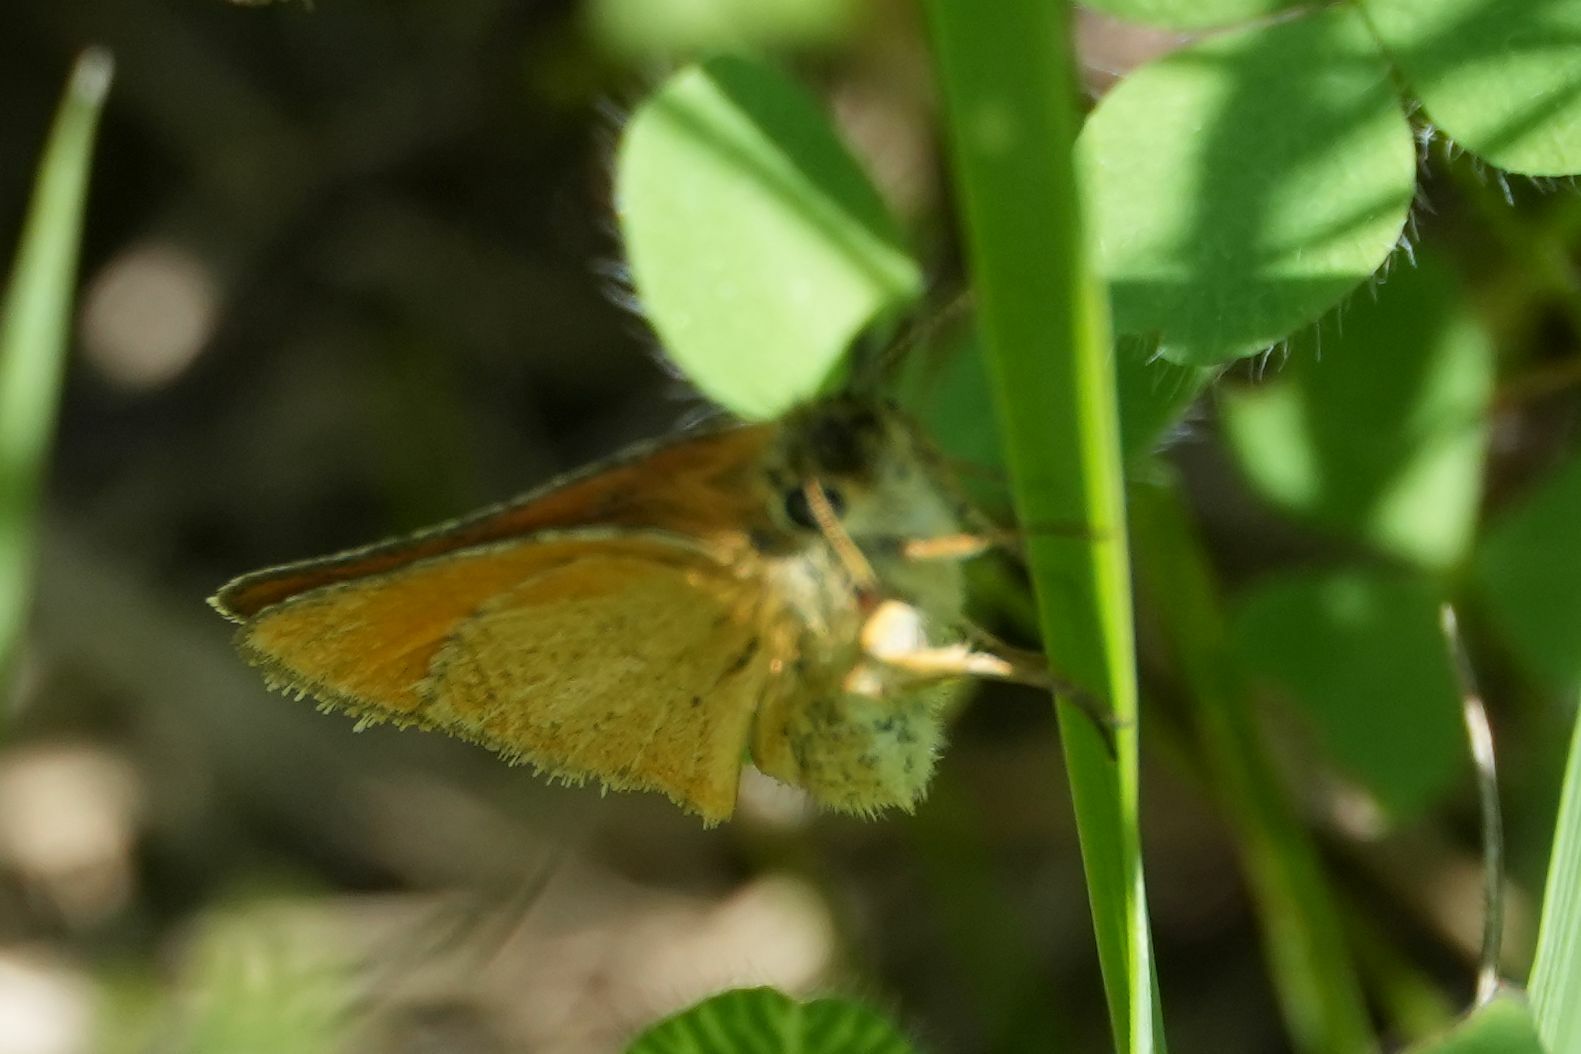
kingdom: Animalia
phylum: Arthropoda
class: Insecta
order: Lepidoptera
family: Hesperiidae
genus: Thymelicus
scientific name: Thymelicus lineola
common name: Essex skipper
